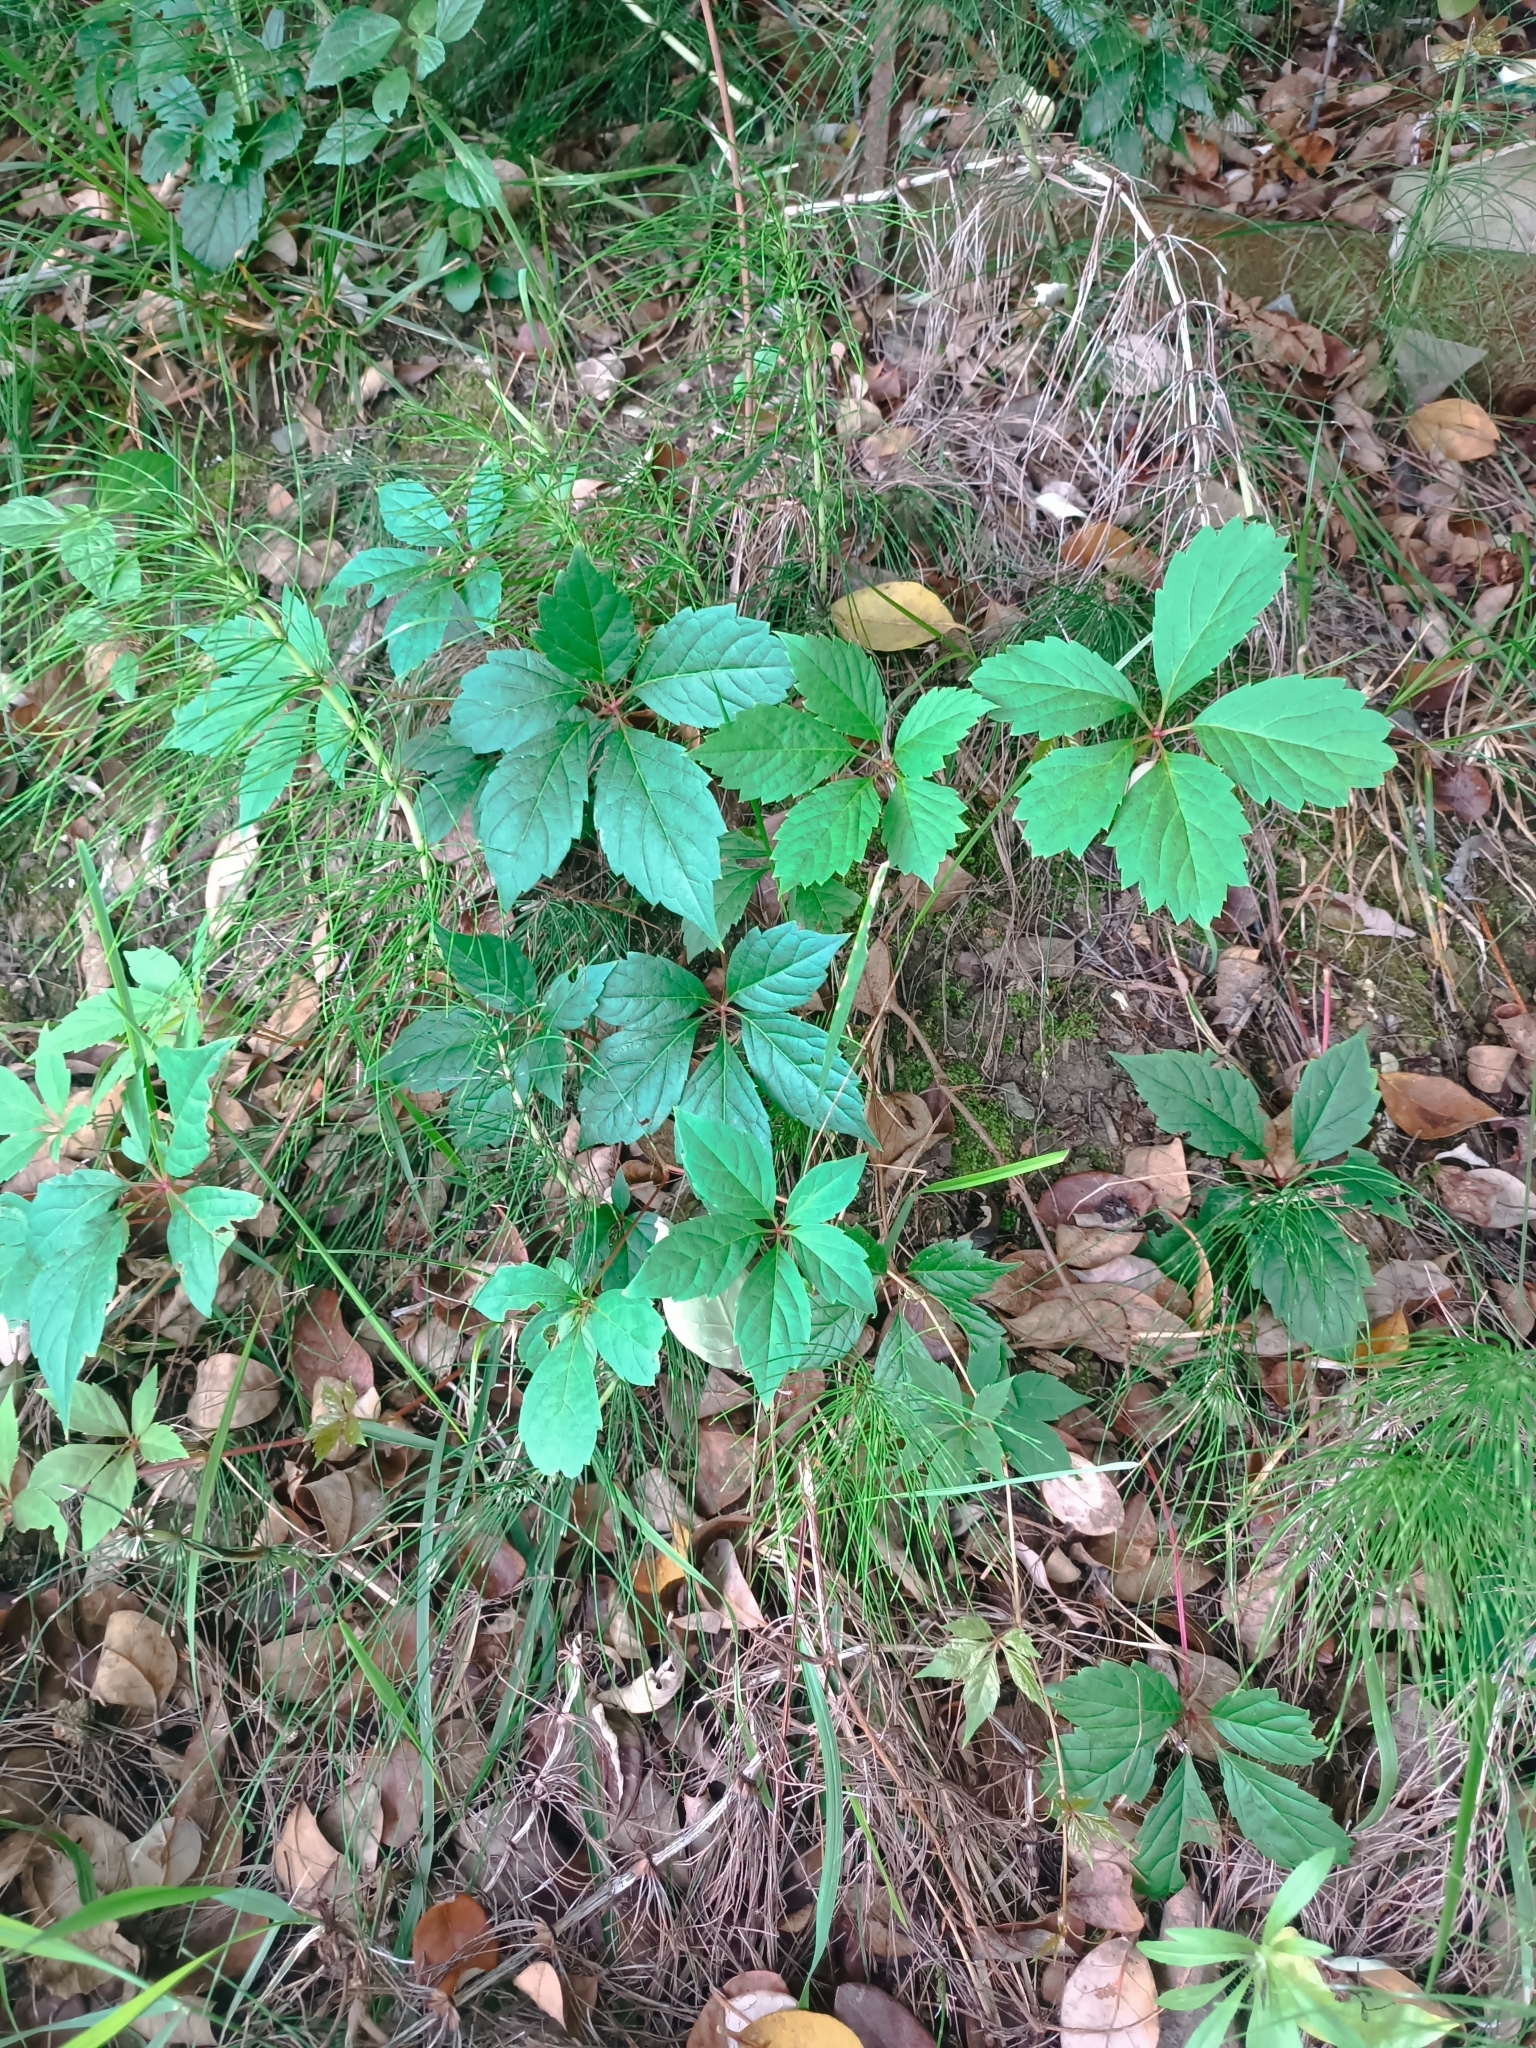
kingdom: Plantae
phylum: Tracheophyta
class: Magnoliopsida
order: Vitales
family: Vitaceae
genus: Parthenocissus
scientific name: Parthenocissus inserta
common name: False virginia-creeper
